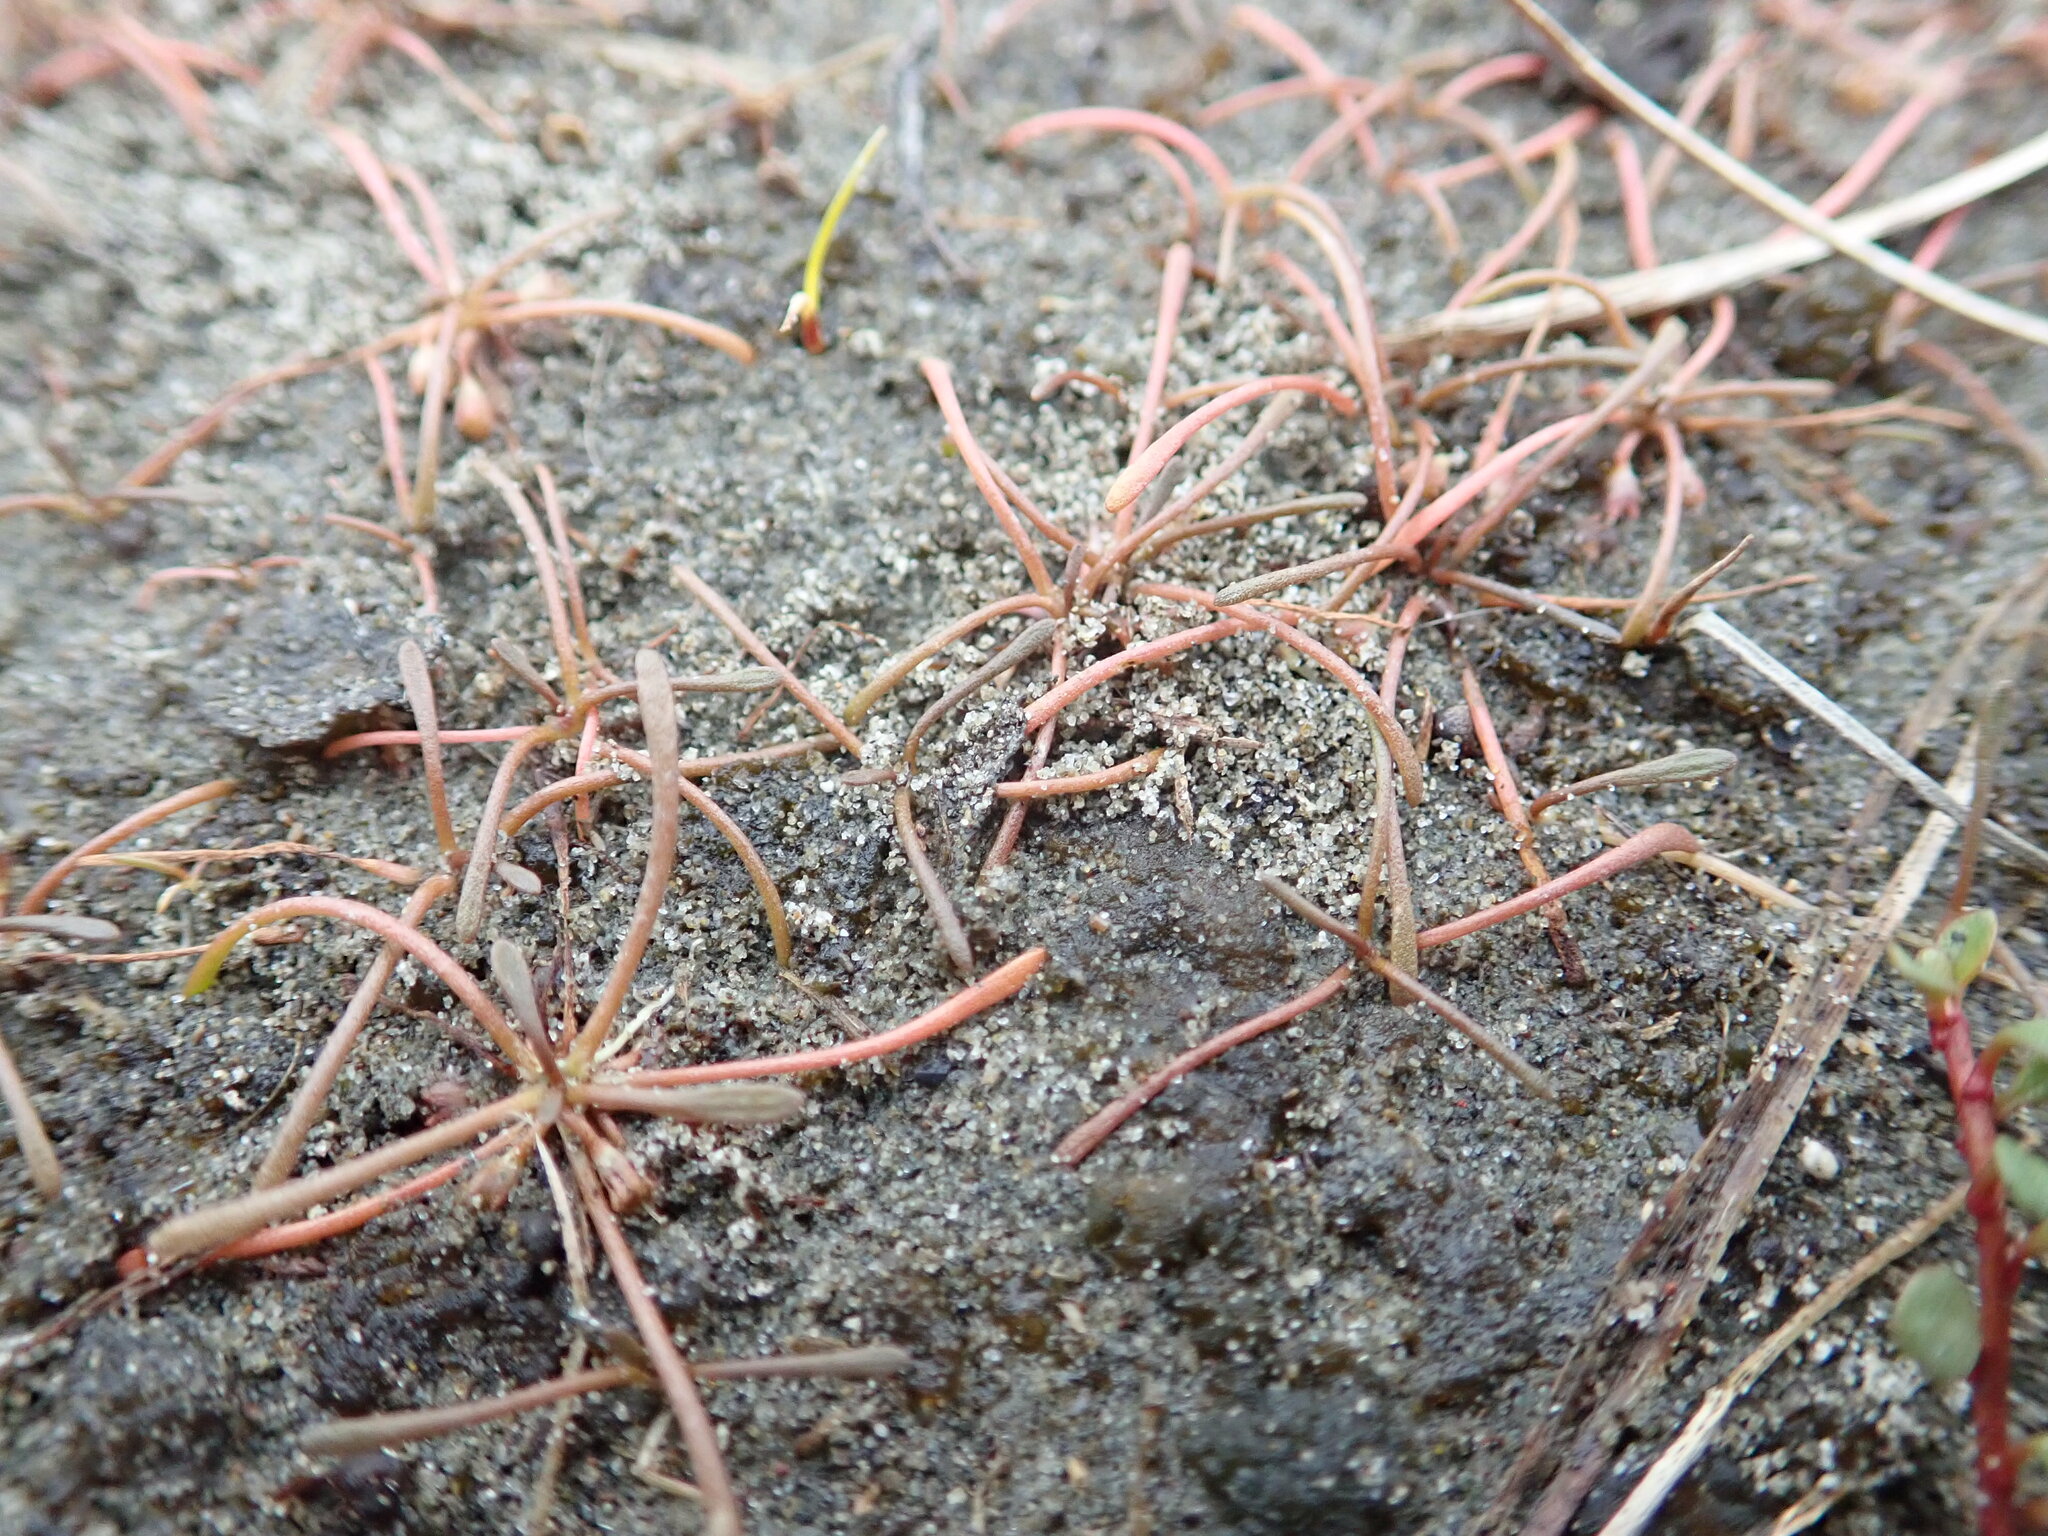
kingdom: Plantae
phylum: Tracheophyta
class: Magnoliopsida
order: Lamiales
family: Scrophulariaceae
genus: Limosella
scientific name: Limosella australis
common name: Welsh mudwort
